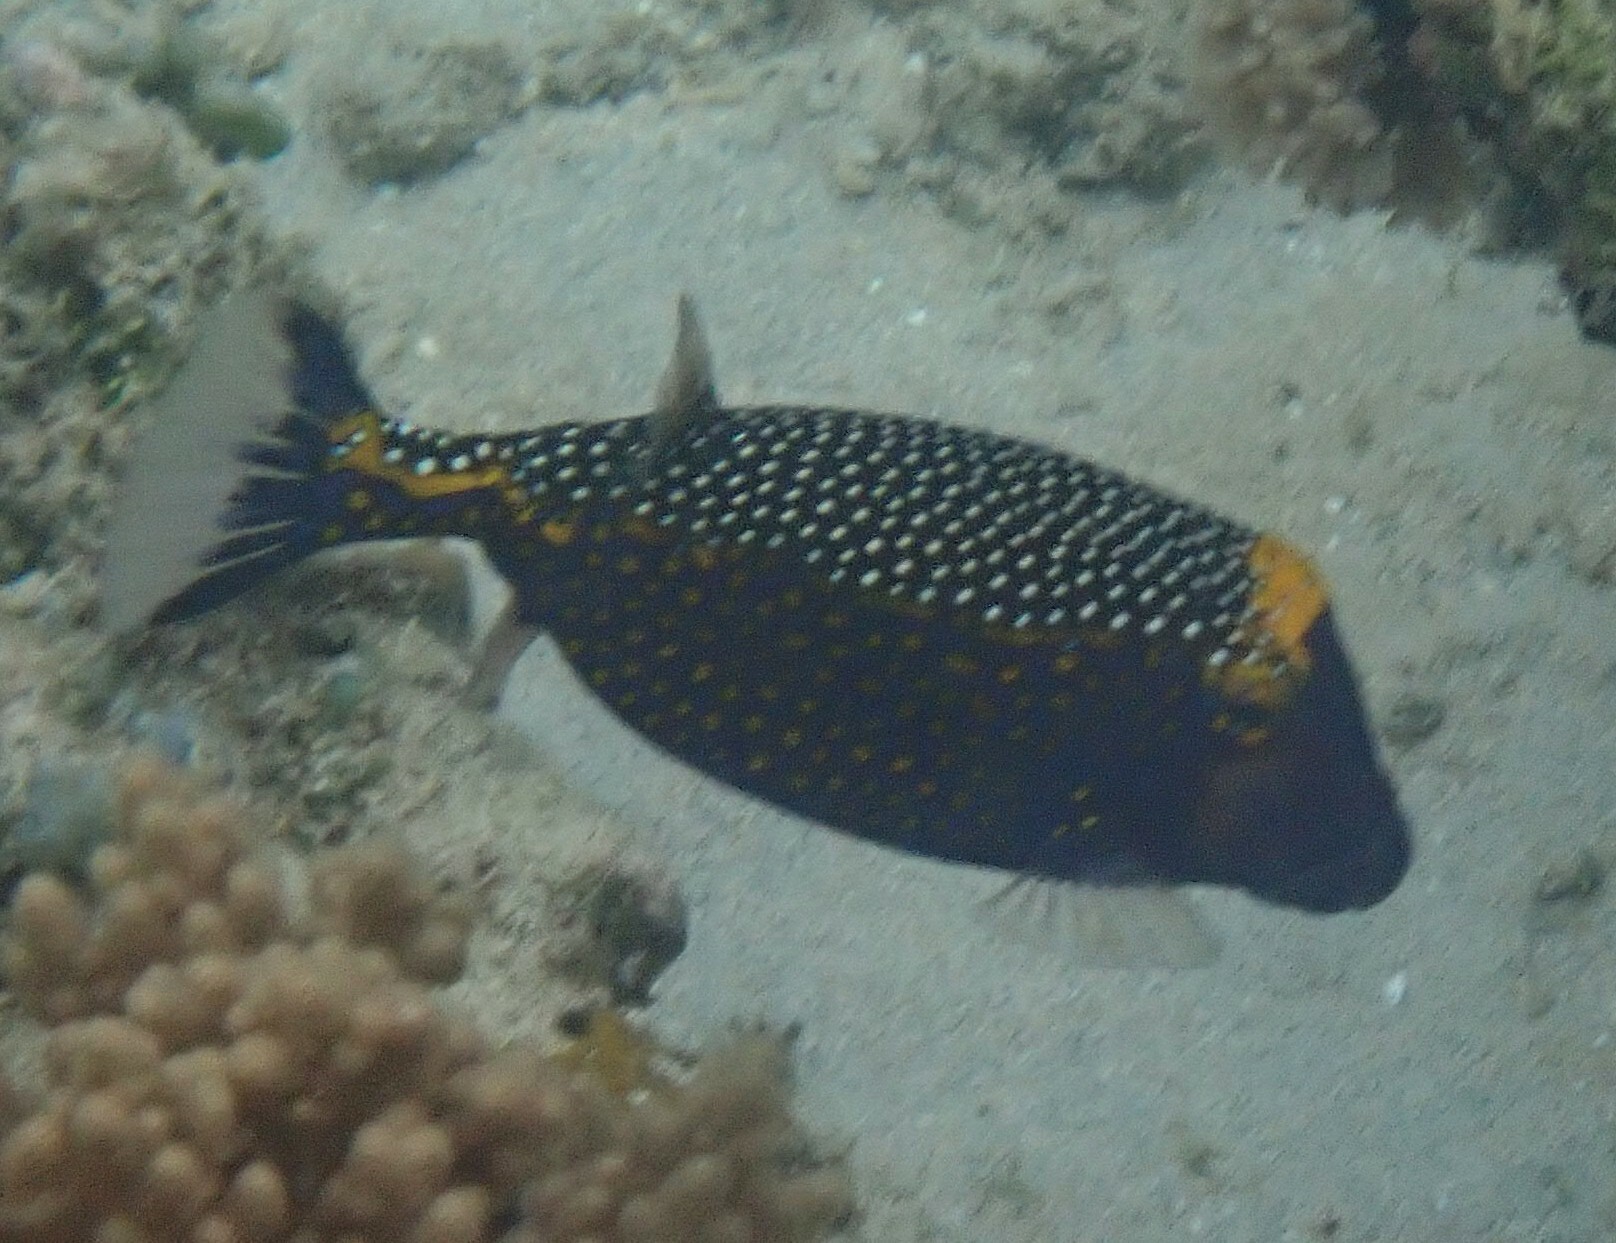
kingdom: Animalia
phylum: Chordata
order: Tetraodontiformes
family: Ostraciidae
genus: Ostracion
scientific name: Ostracion meleagris
